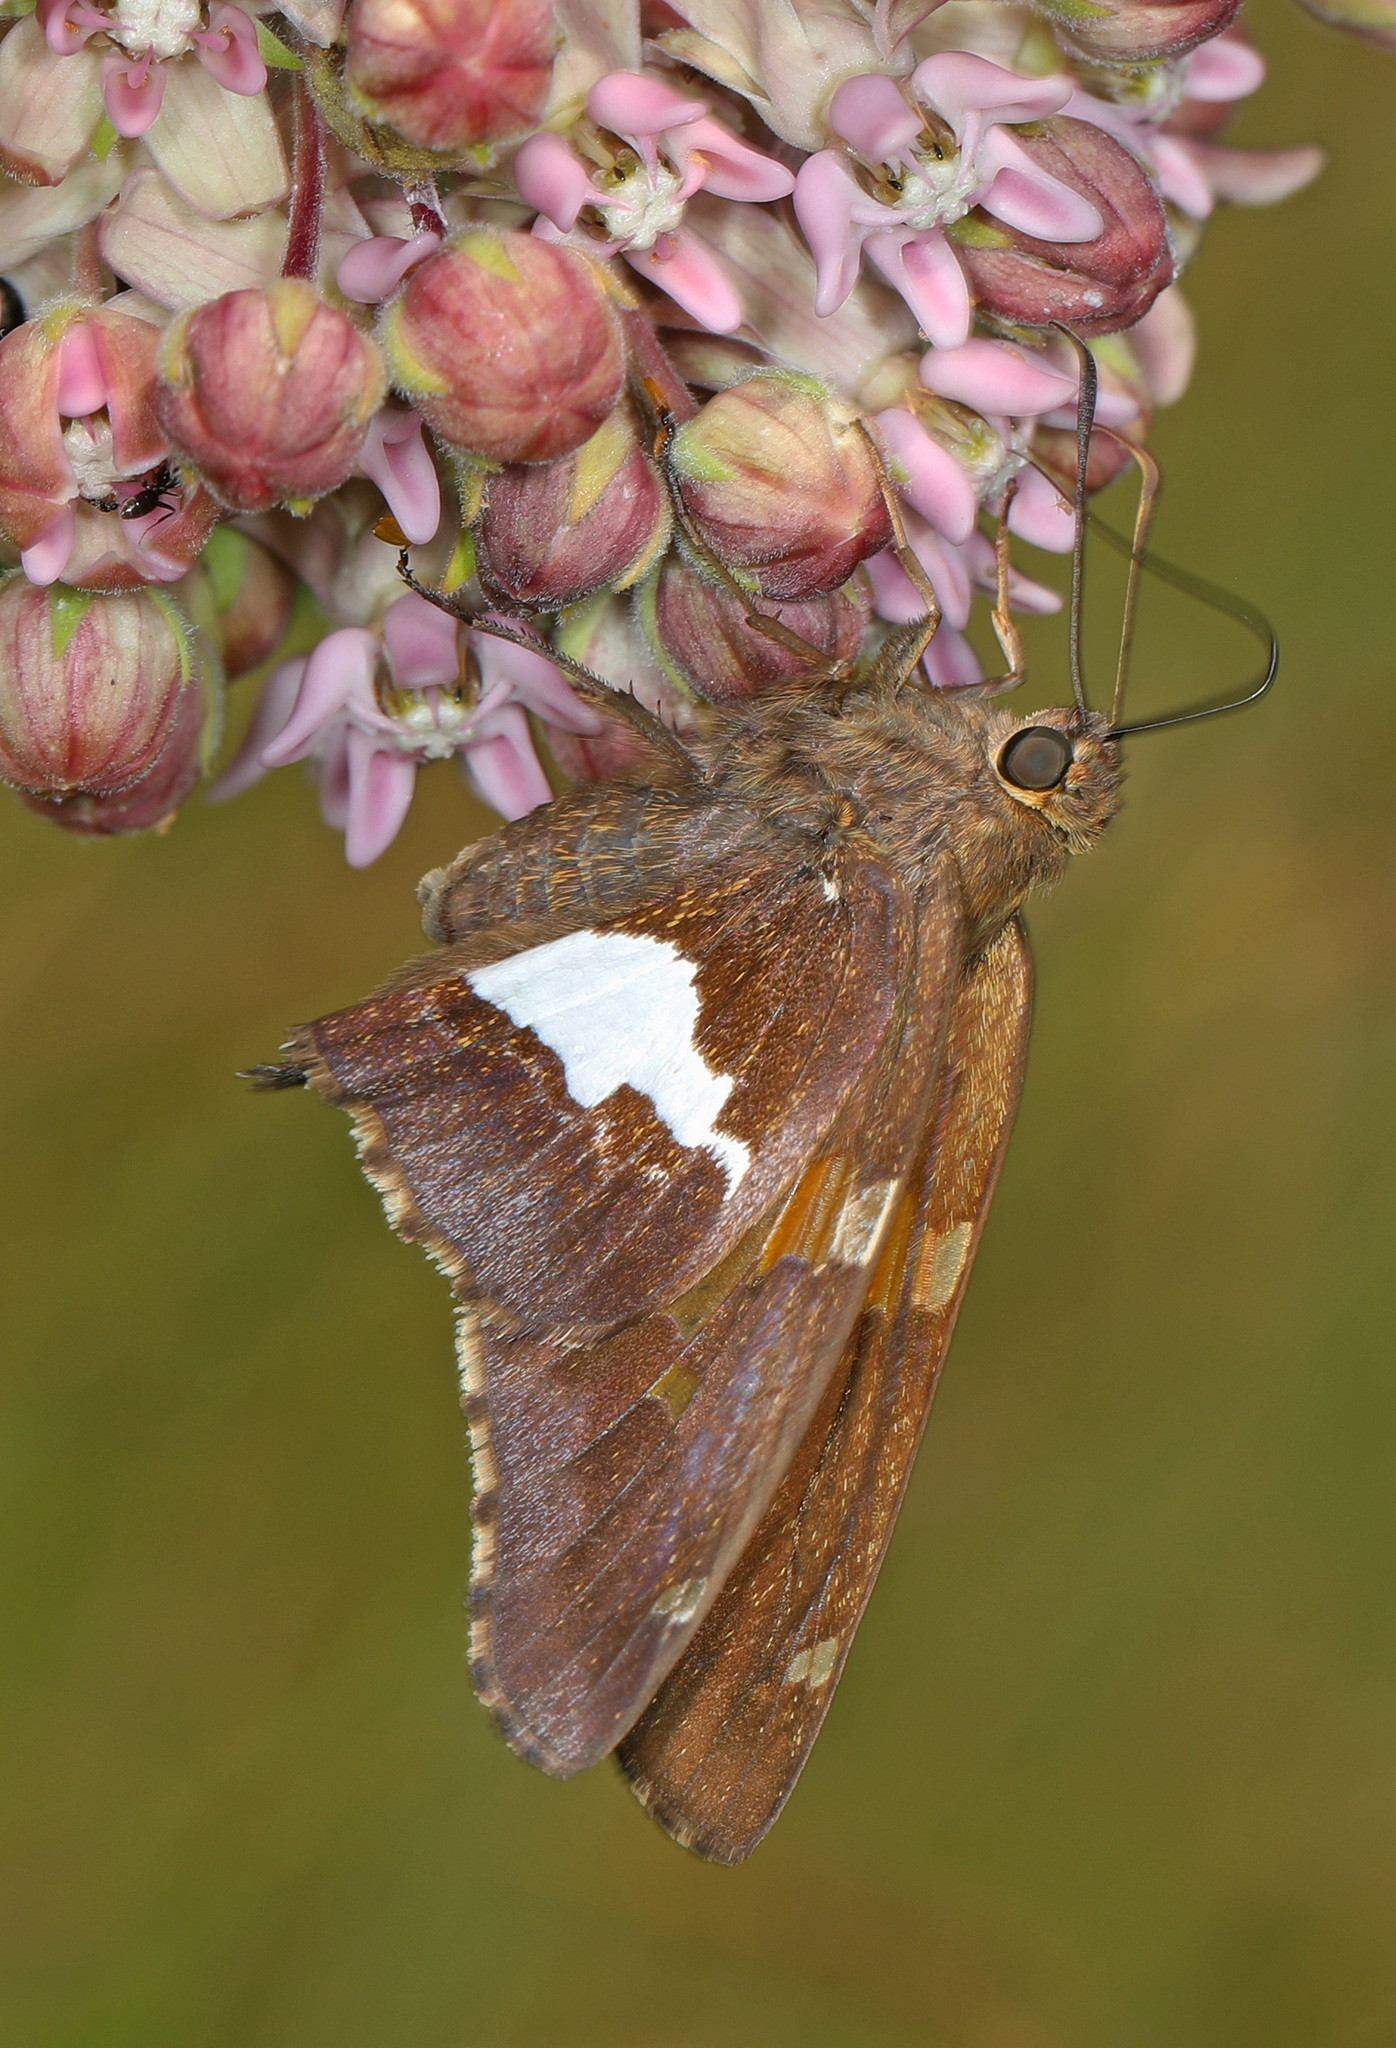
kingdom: Animalia
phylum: Arthropoda
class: Insecta
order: Lepidoptera
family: Hesperiidae
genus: Epargyreus
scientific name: Epargyreus clarus
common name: Silver-spotted skipper
